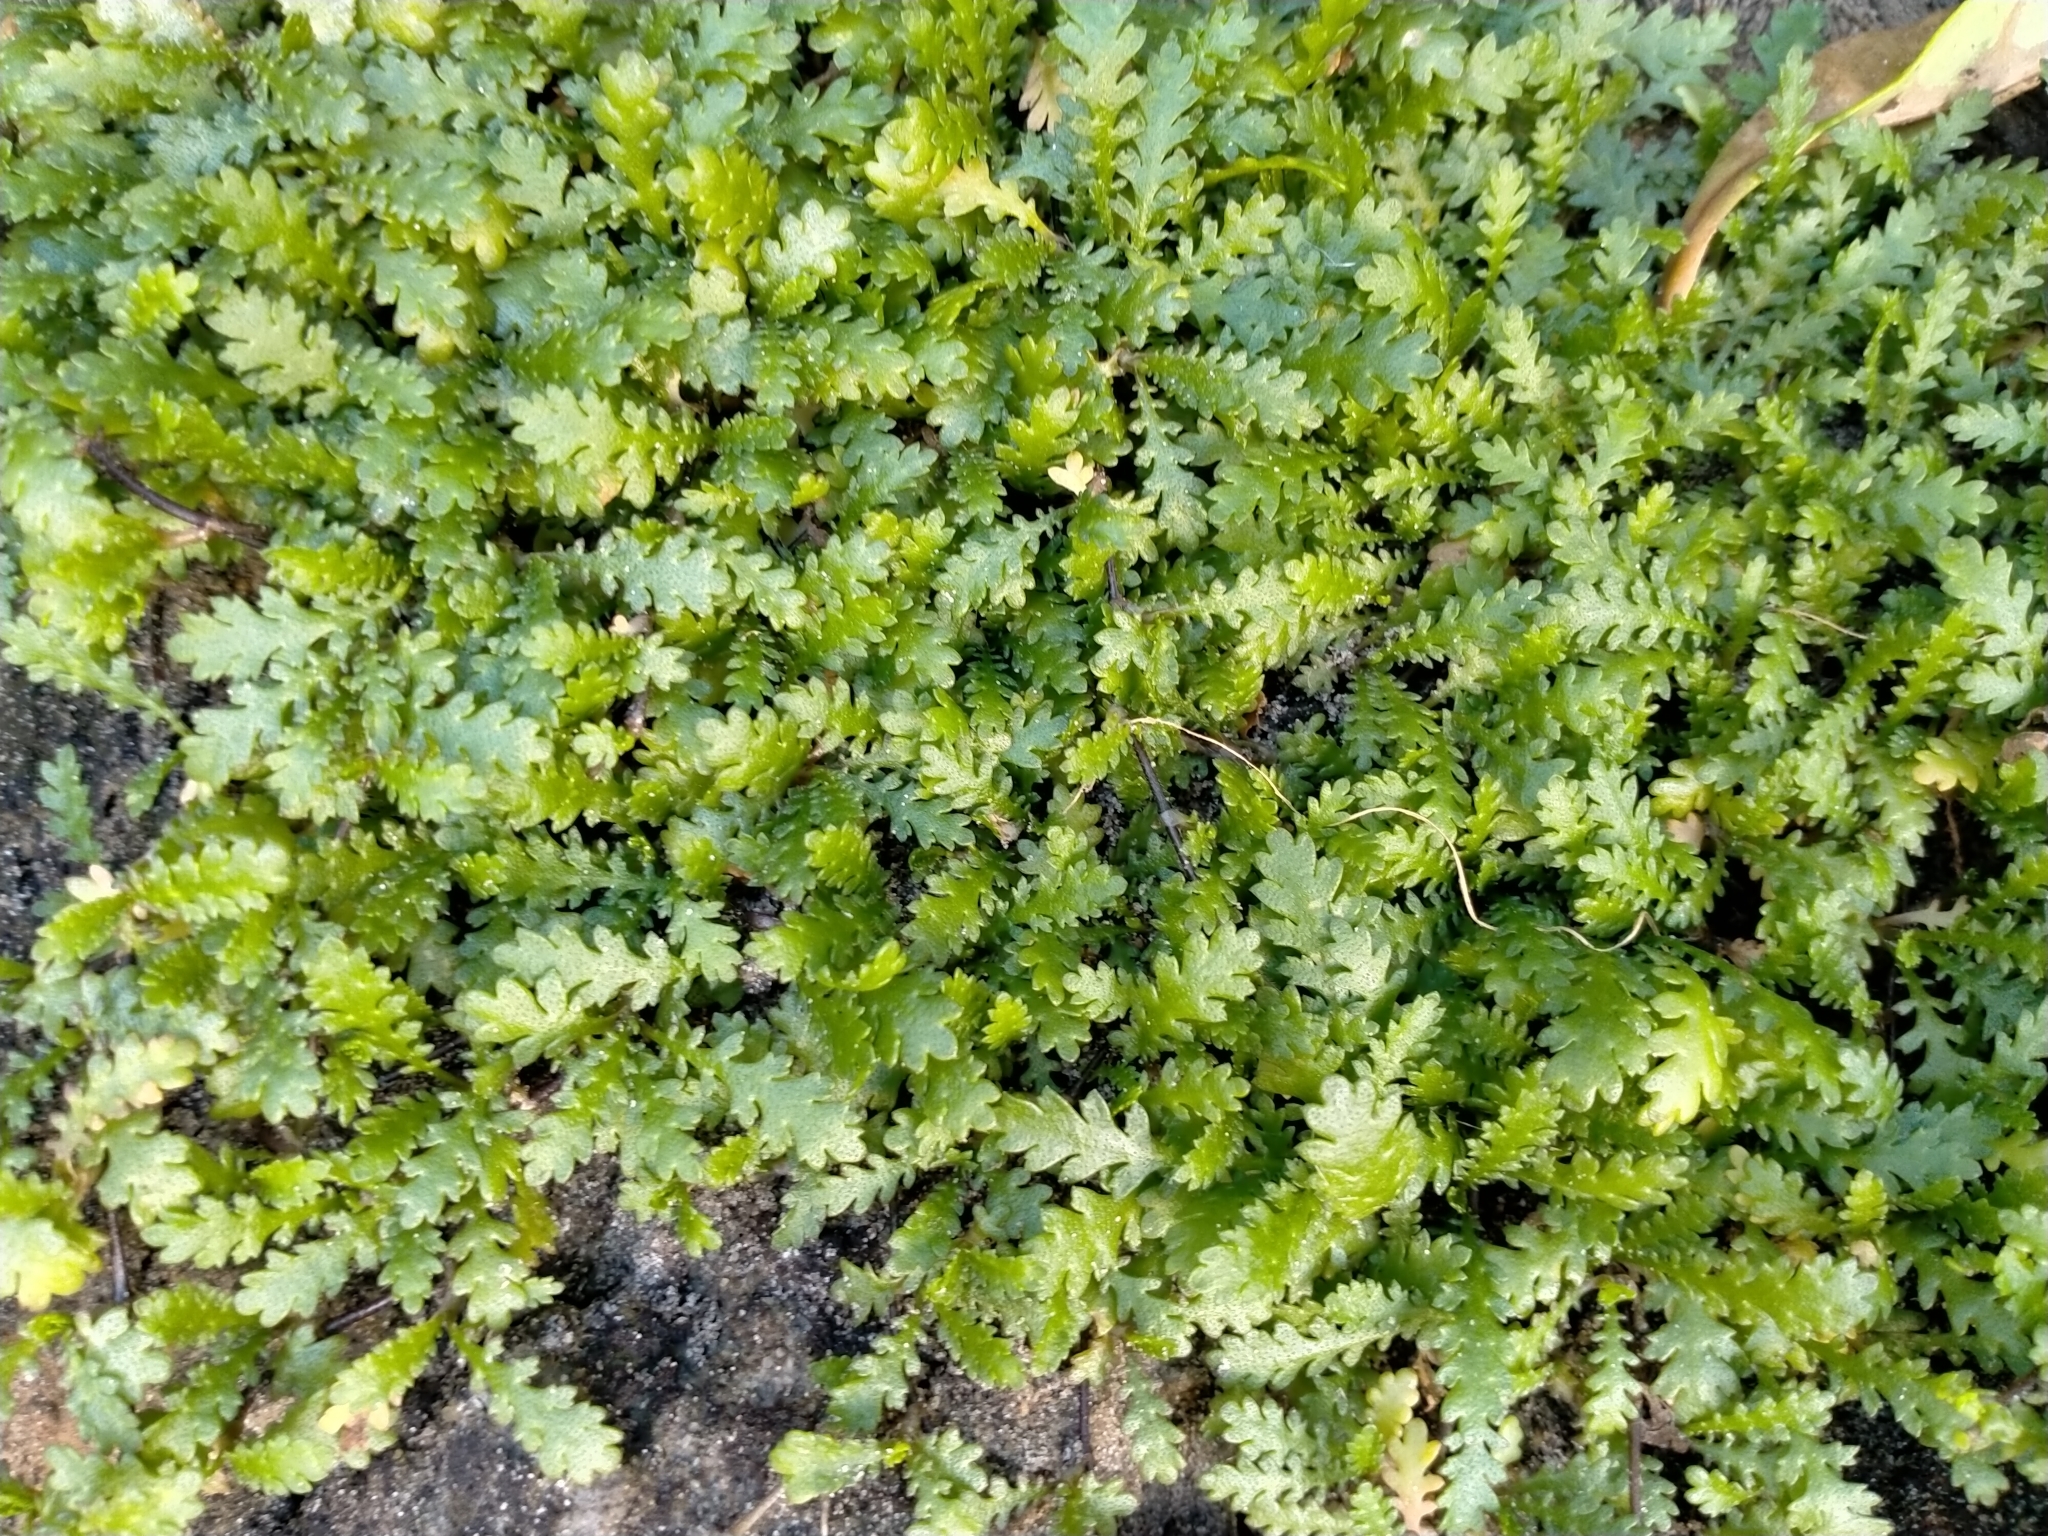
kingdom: Plantae
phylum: Tracheophyta
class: Magnoliopsida
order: Asterales
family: Asteraceae
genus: Leptinella
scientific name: Leptinella dioica
